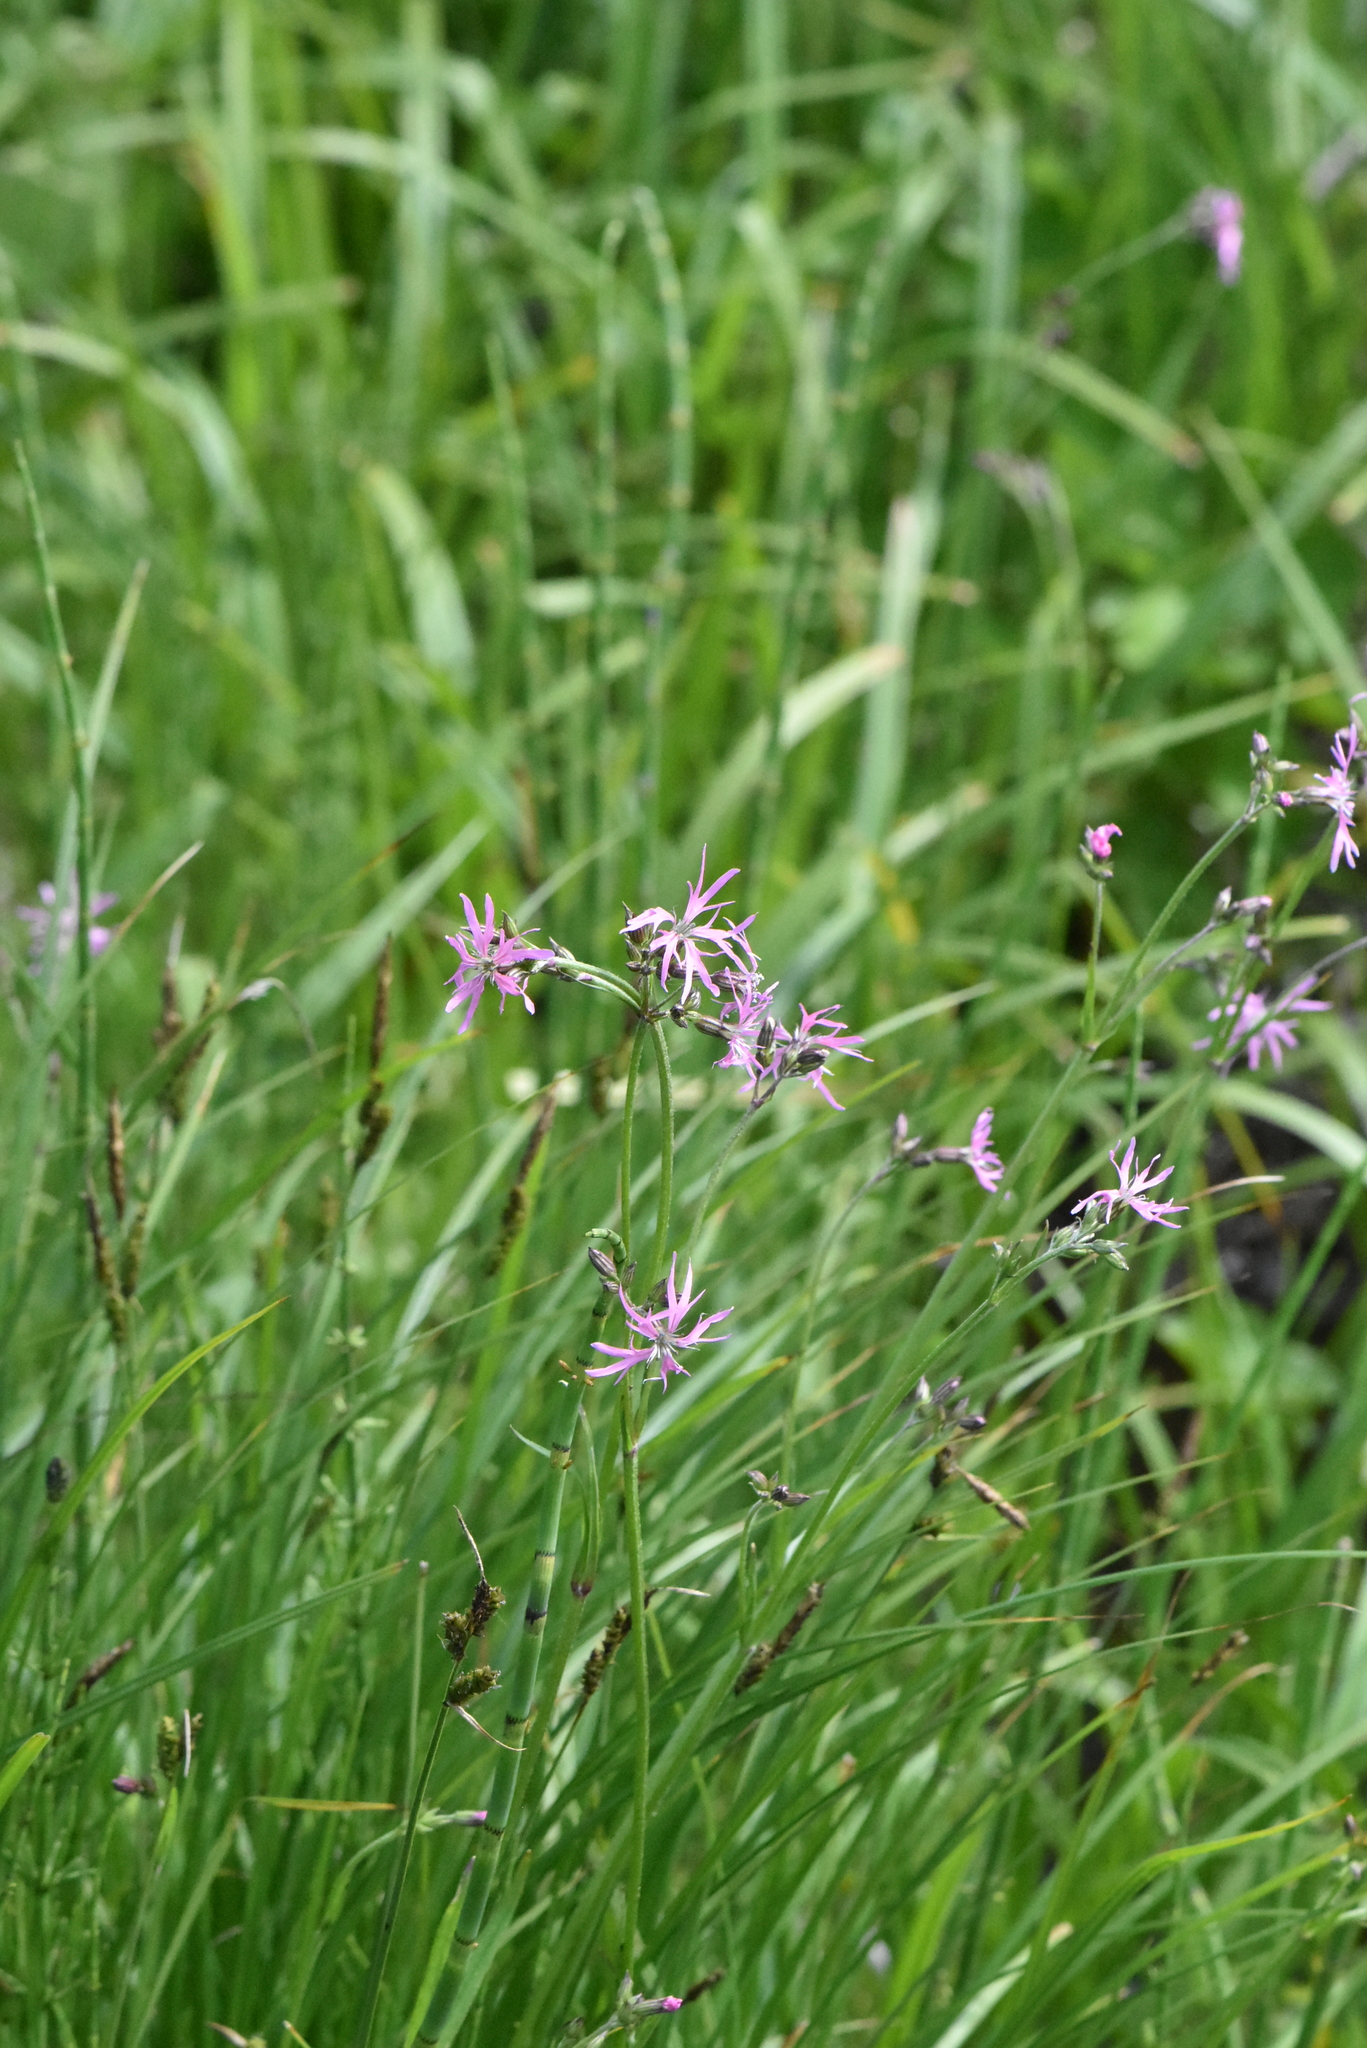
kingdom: Plantae
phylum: Tracheophyta
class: Magnoliopsida
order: Caryophyllales
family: Caryophyllaceae
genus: Silene
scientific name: Silene flos-cuculi
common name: Ragged-robin
